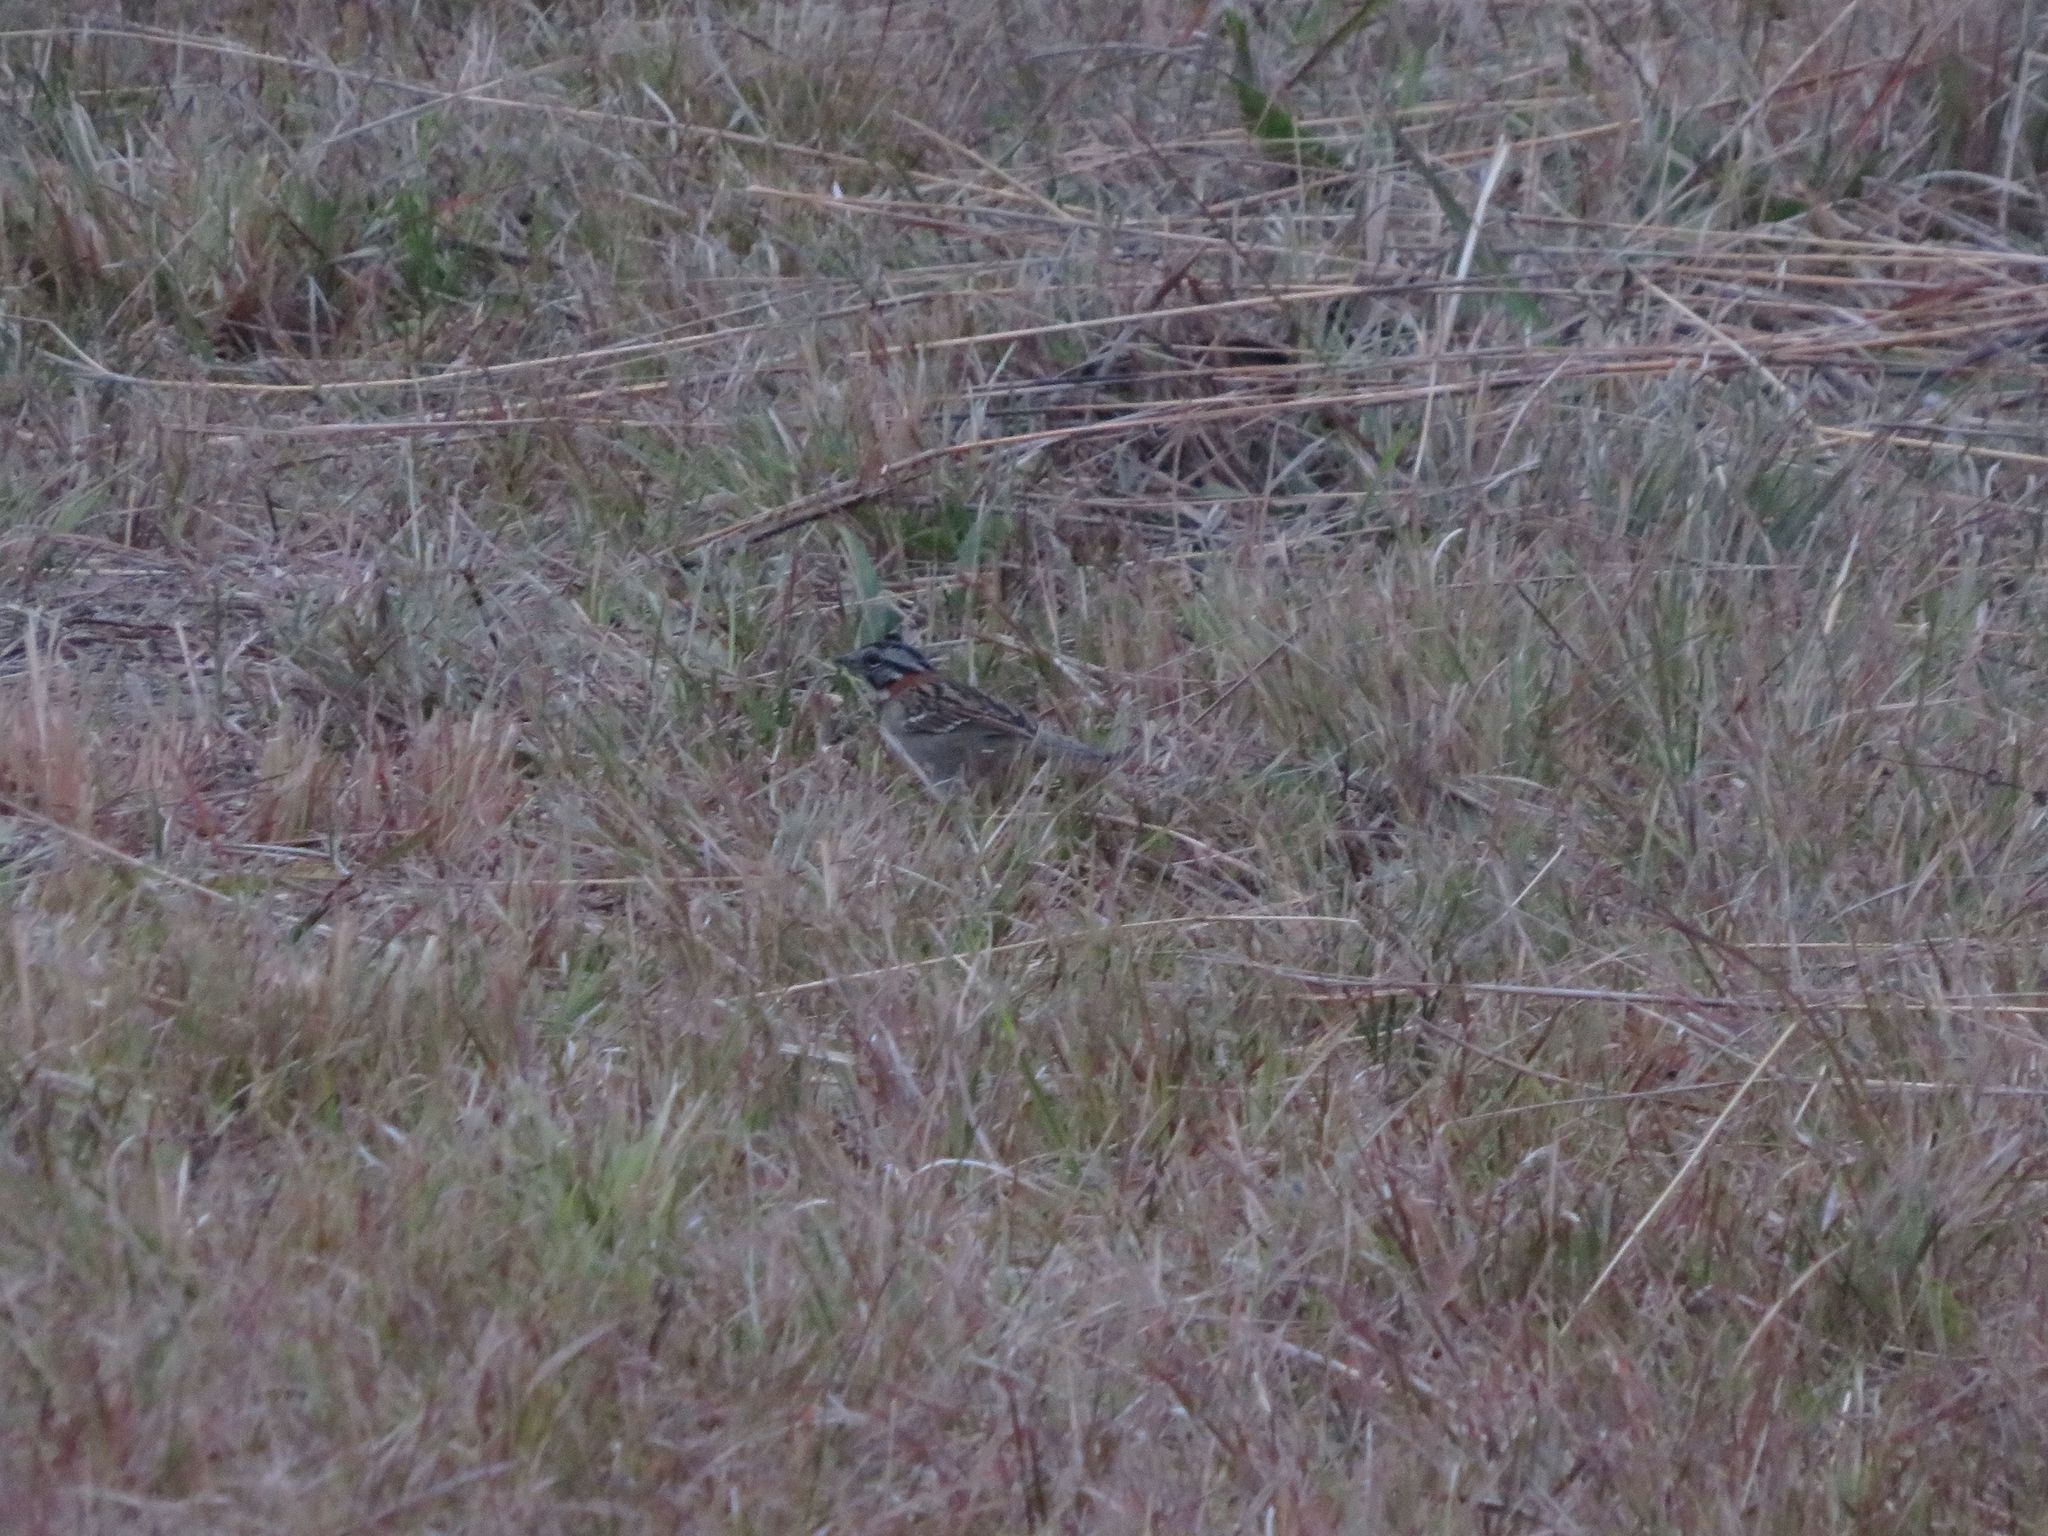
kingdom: Animalia
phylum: Chordata
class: Aves
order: Passeriformes
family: Passerellidae
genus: Zonotrichia
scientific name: Zonotrichia capensis
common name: Rufous-collared sparrow
